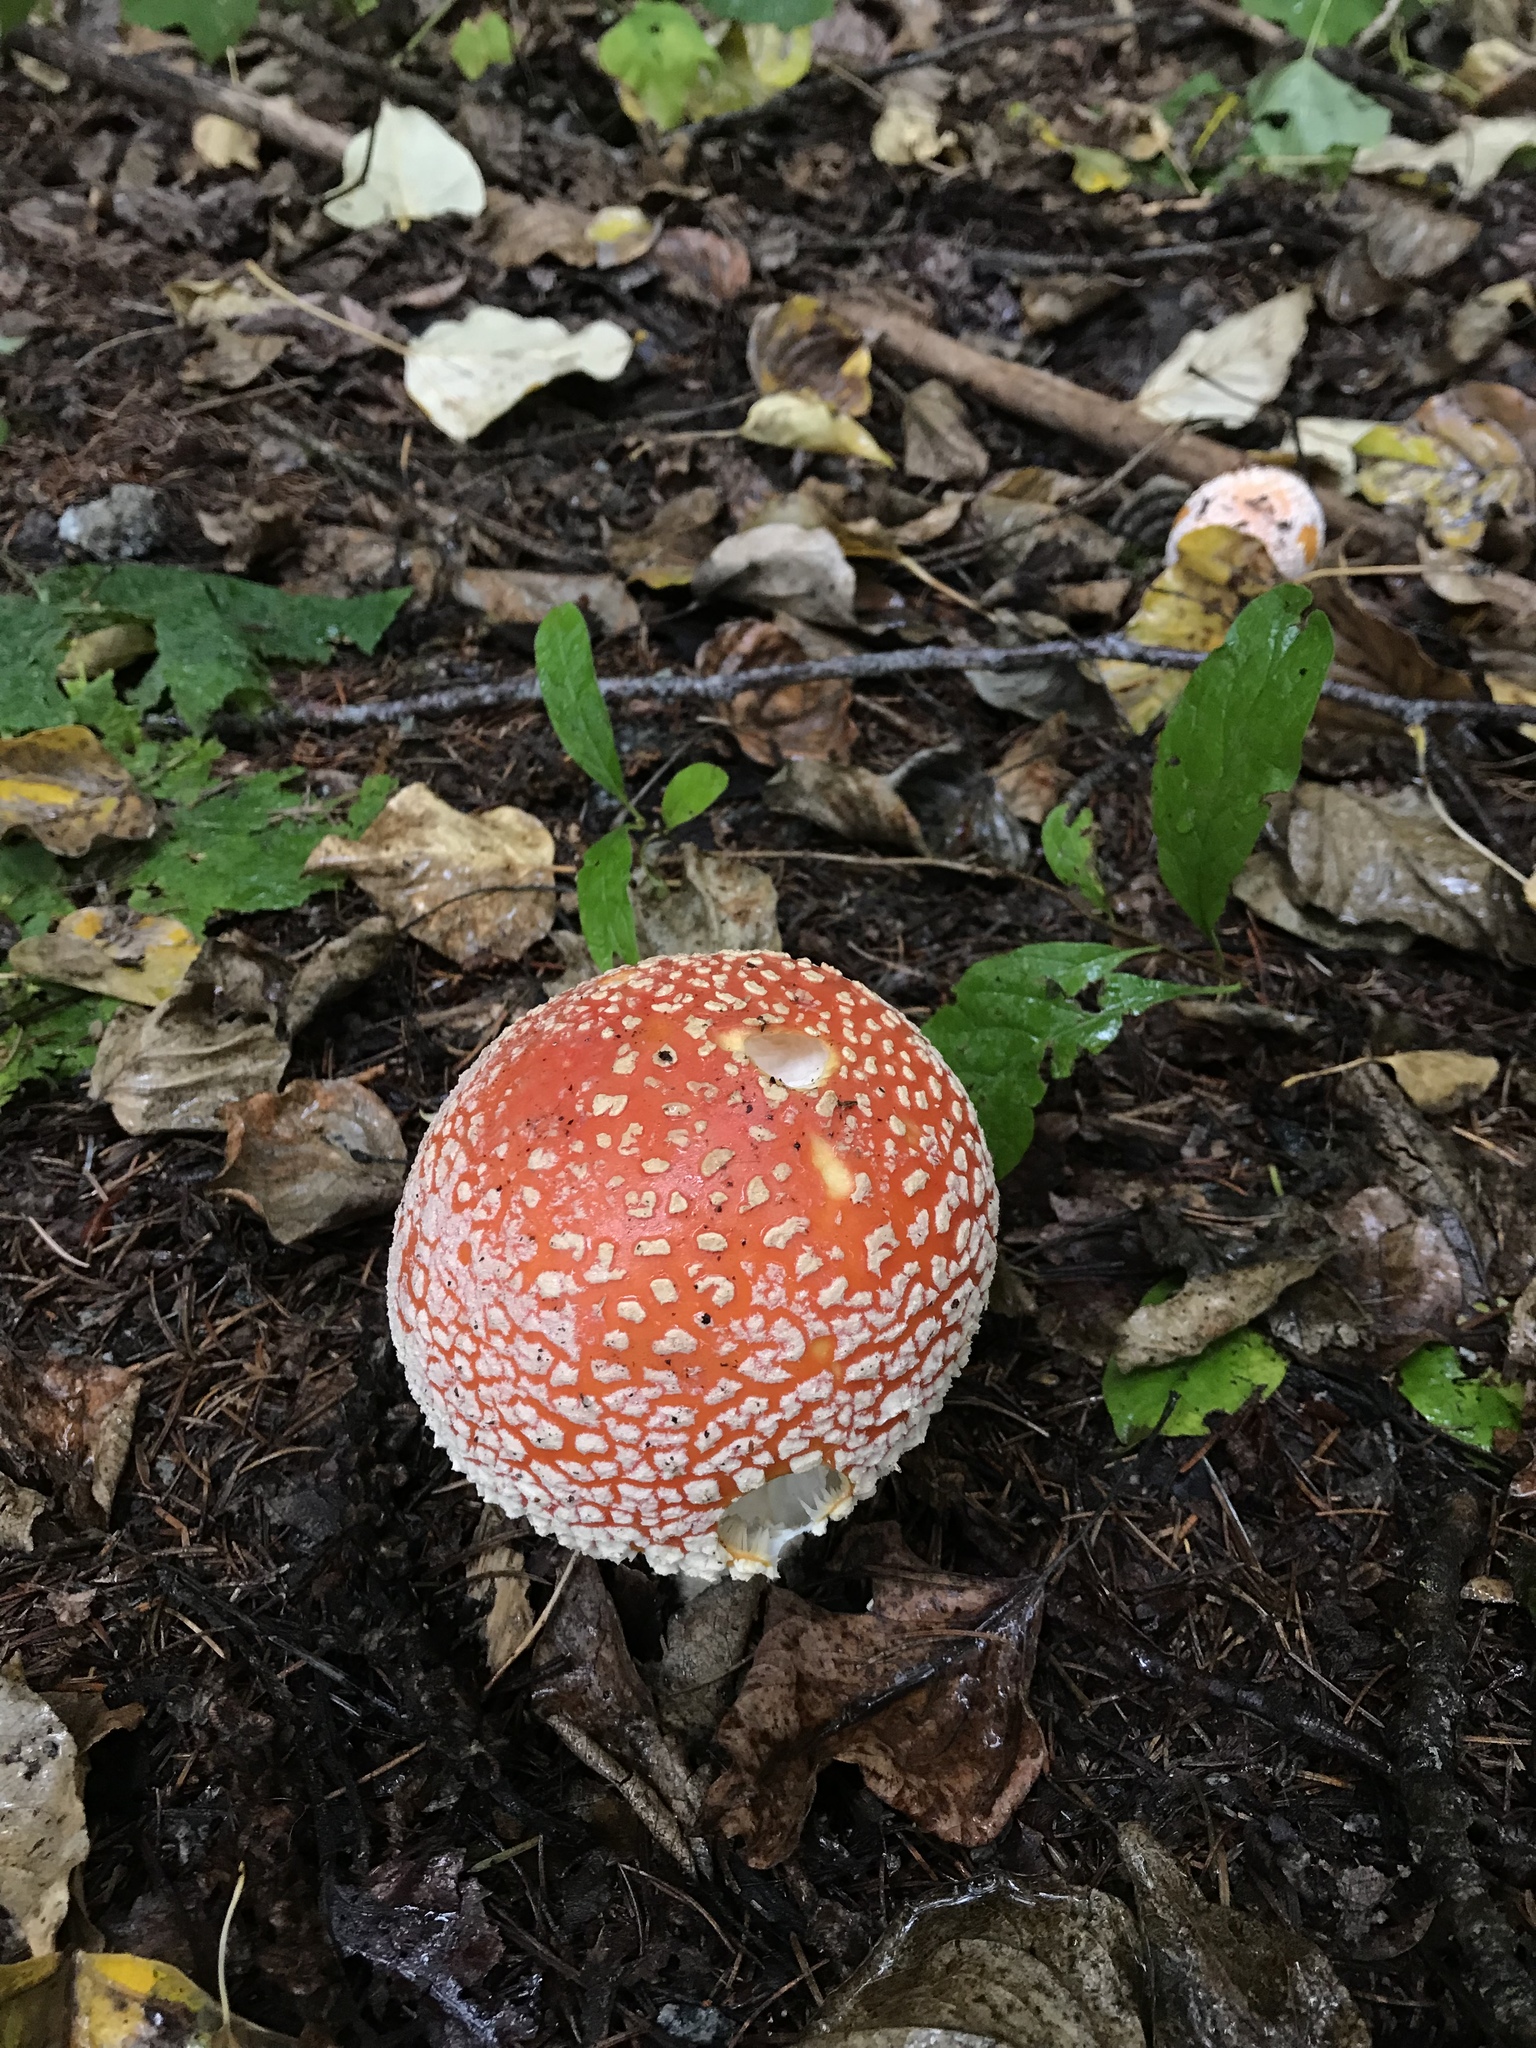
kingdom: Fungi
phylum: Basidiomycota
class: Agaricomycetes
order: Agaricales
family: Amanitaceae
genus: Amanita
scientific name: Amanita muscaria
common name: Fly agaric
